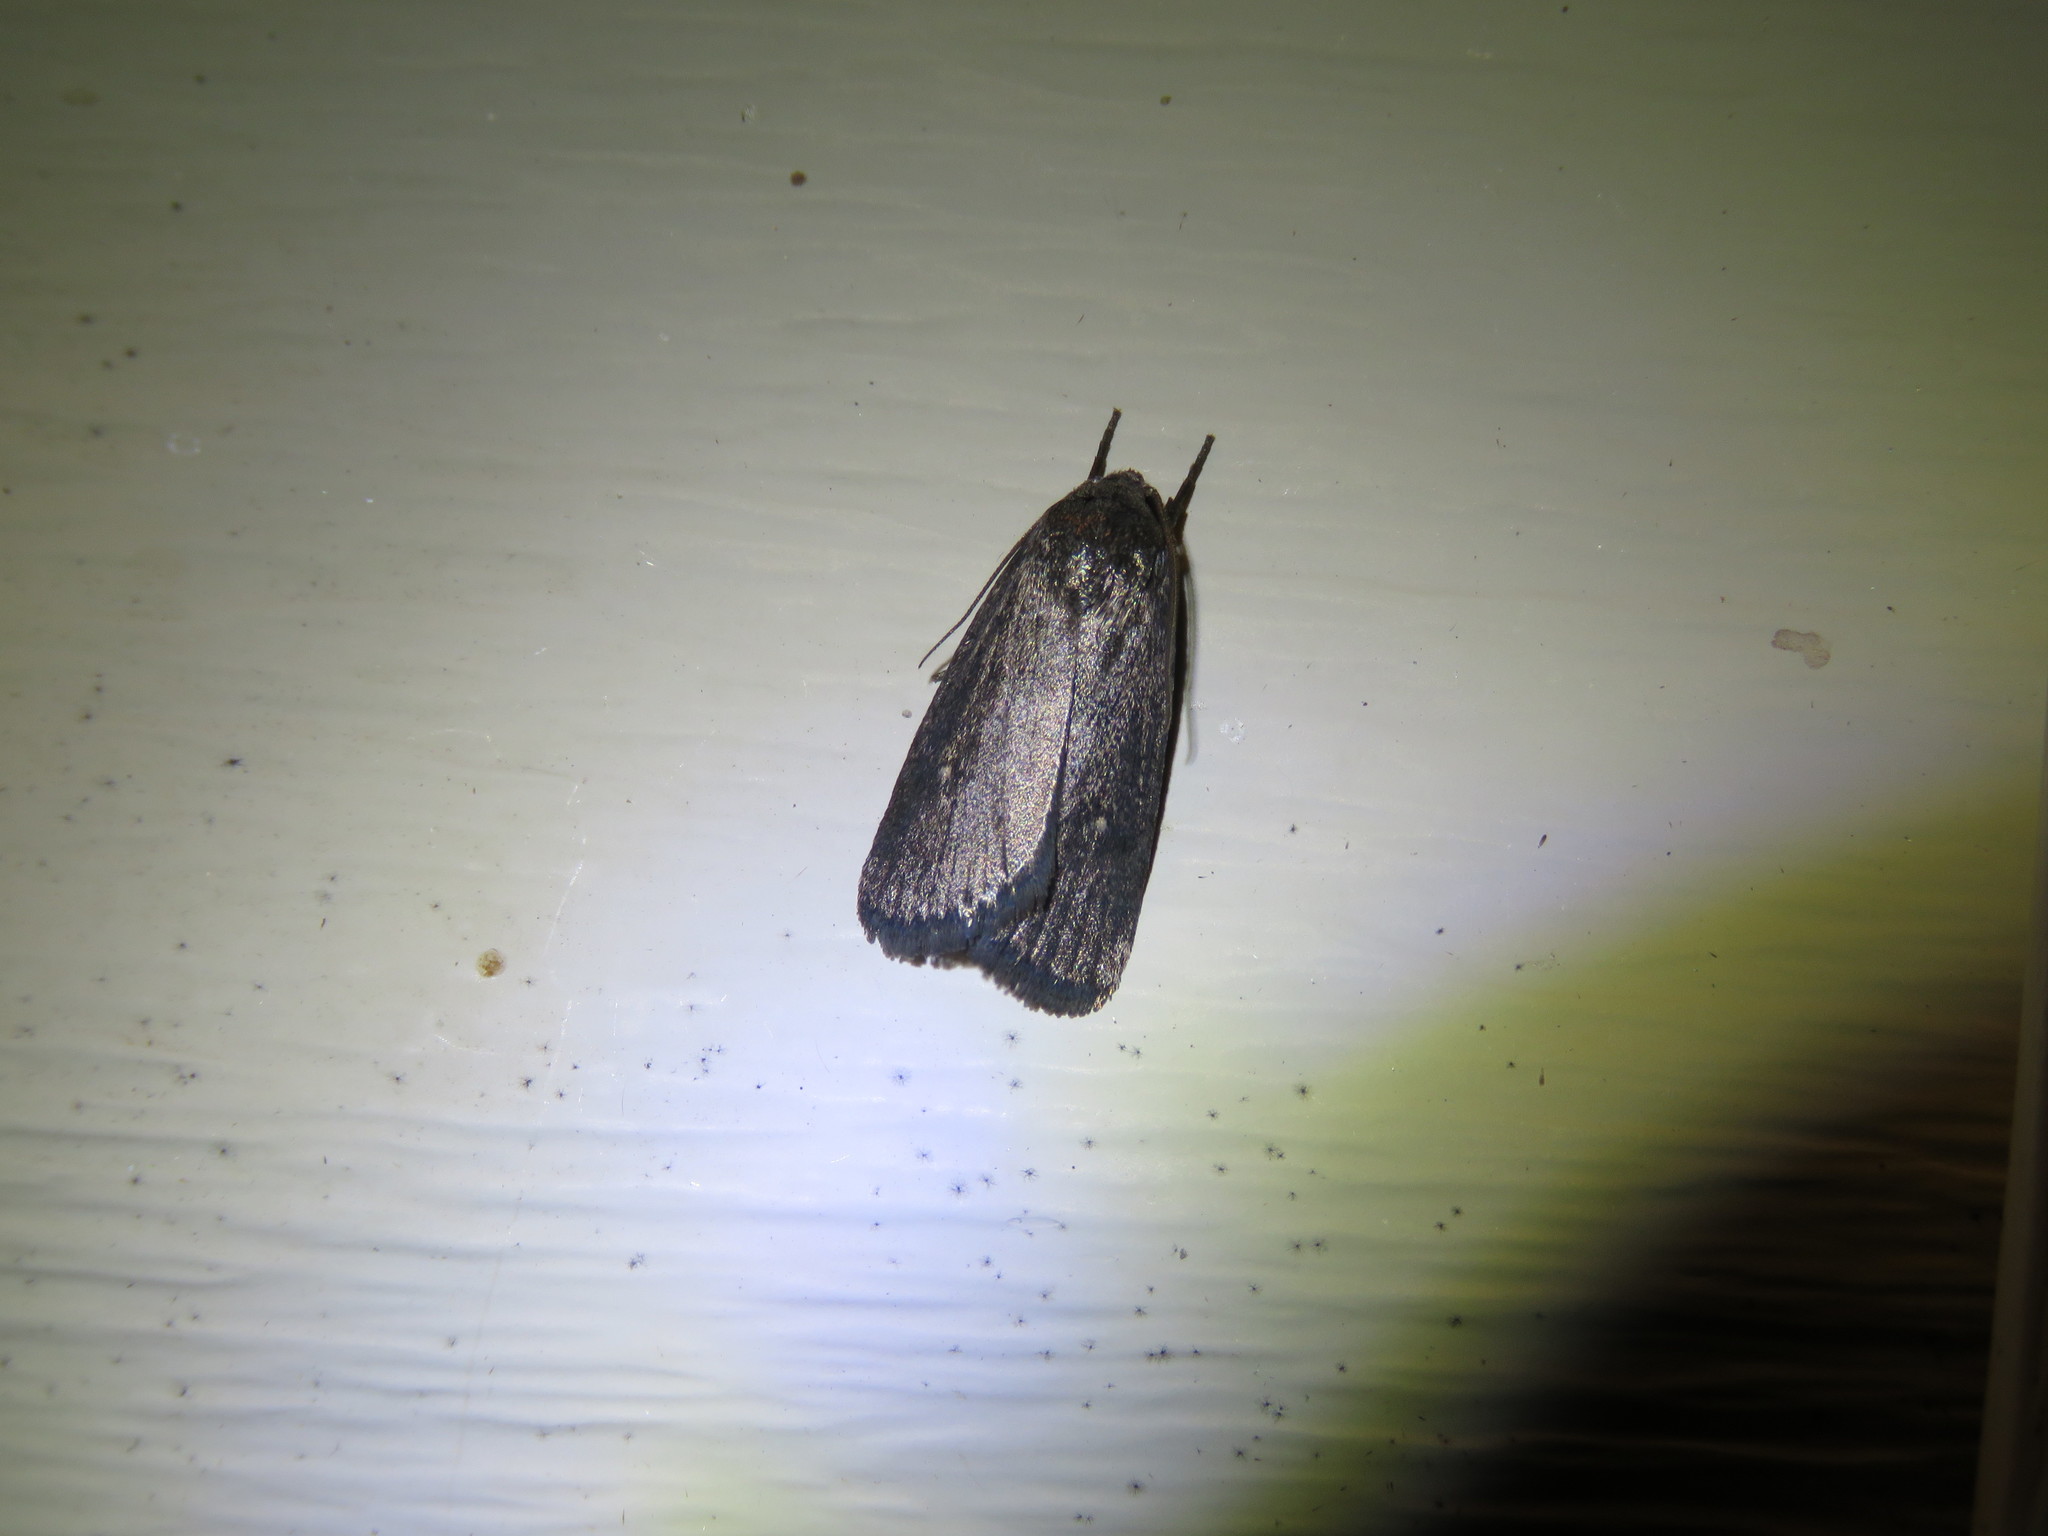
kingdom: Animalia
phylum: Arthropoda
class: Insecta
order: Lepidoptera
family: Noctuidae
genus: Proxenus
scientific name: Proxenus miranda
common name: Miranda moth
